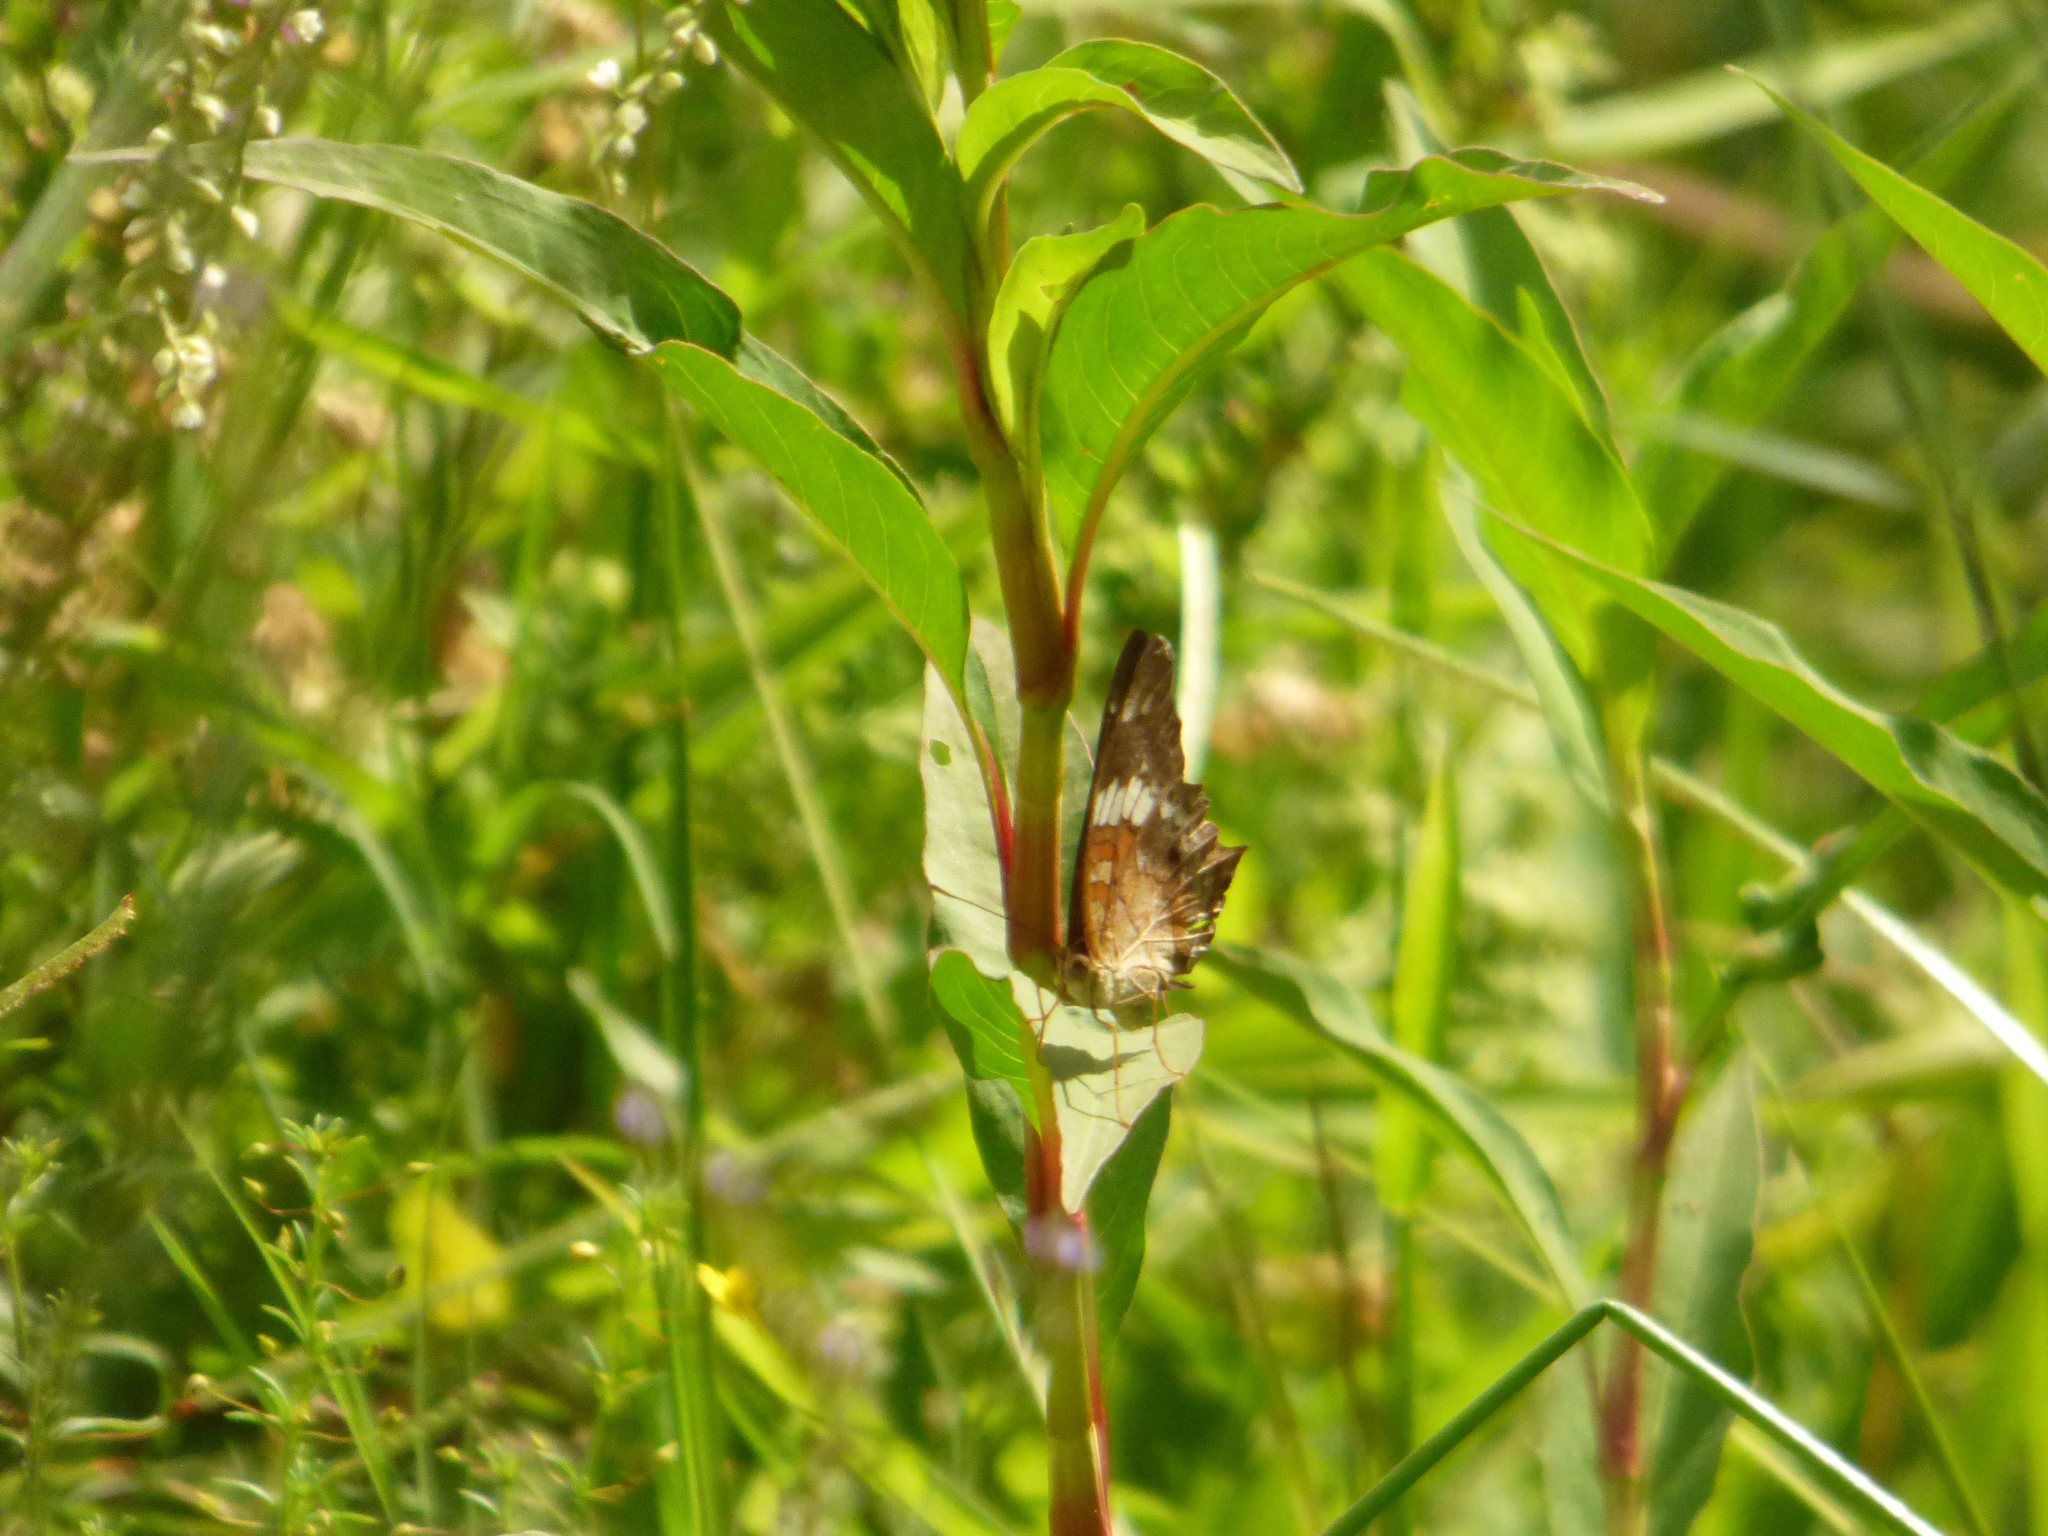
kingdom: Animalia
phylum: Arthropoda
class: Insecta
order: Lepidoptera
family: Nymphalidae
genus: Anartia
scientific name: Anartia amathea
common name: Red peacock
